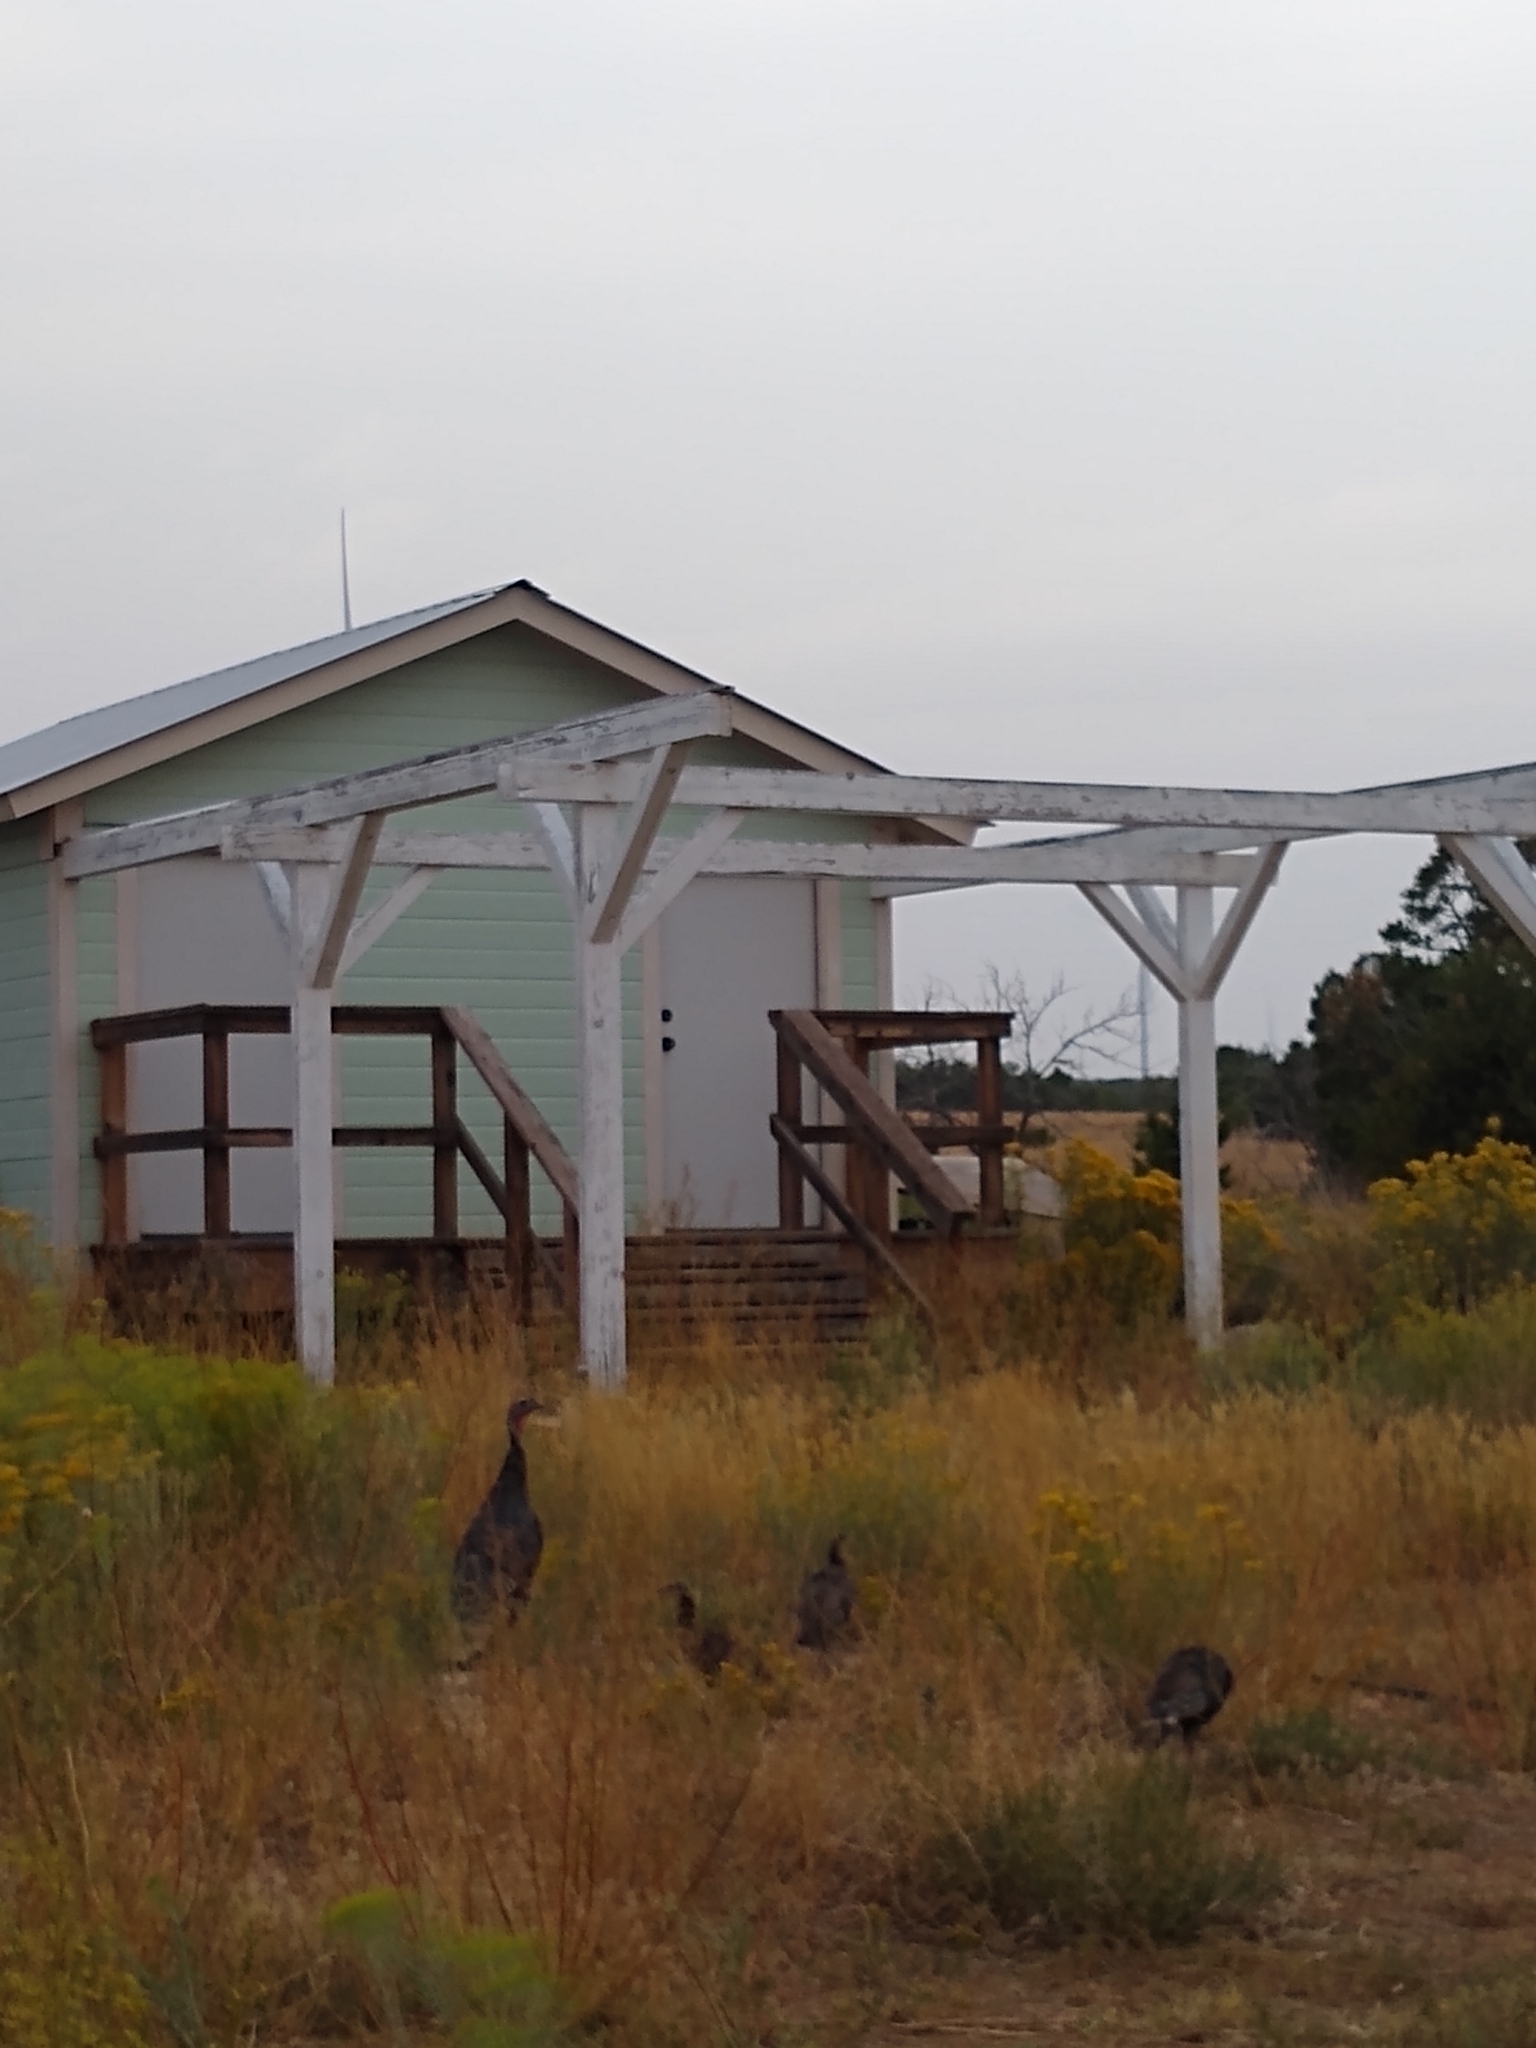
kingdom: Animalia
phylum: Chordata
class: Aves
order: Galliformes
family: Phasianidae
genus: Meleagris
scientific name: Meleagris gallopavo
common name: Wild turkey
